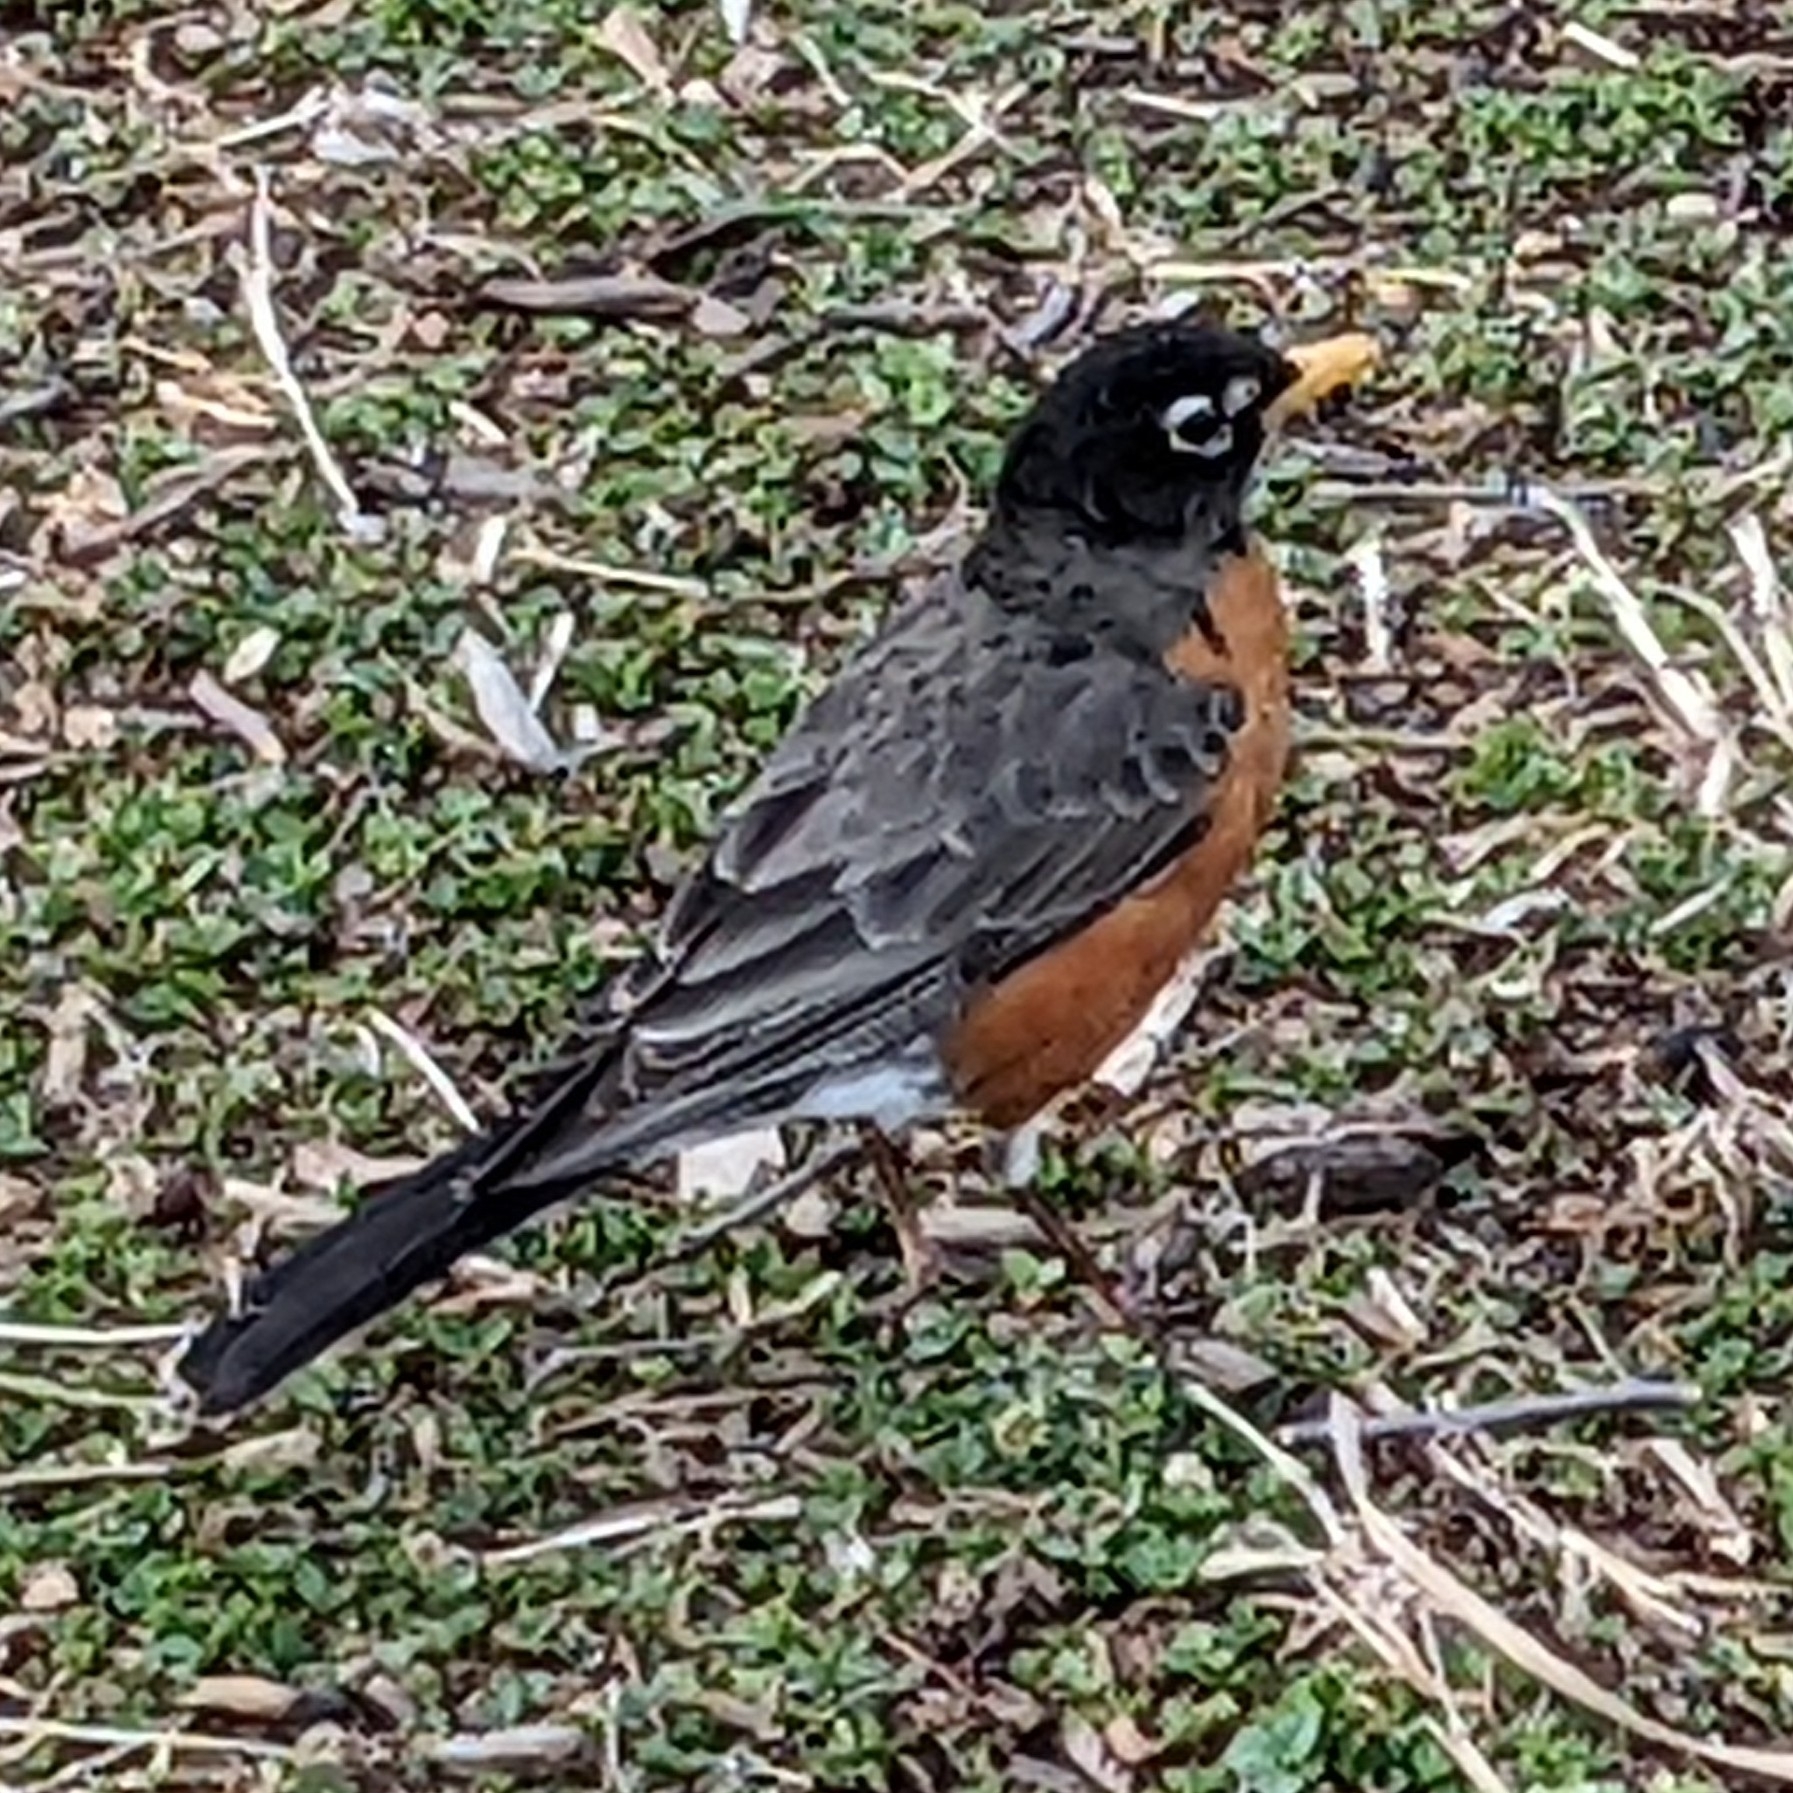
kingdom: Animalia
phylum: Chordata
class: Aves
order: Passeriformes
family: Turdidae
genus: Turdus
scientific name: Turdus migratorius
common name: American robin
